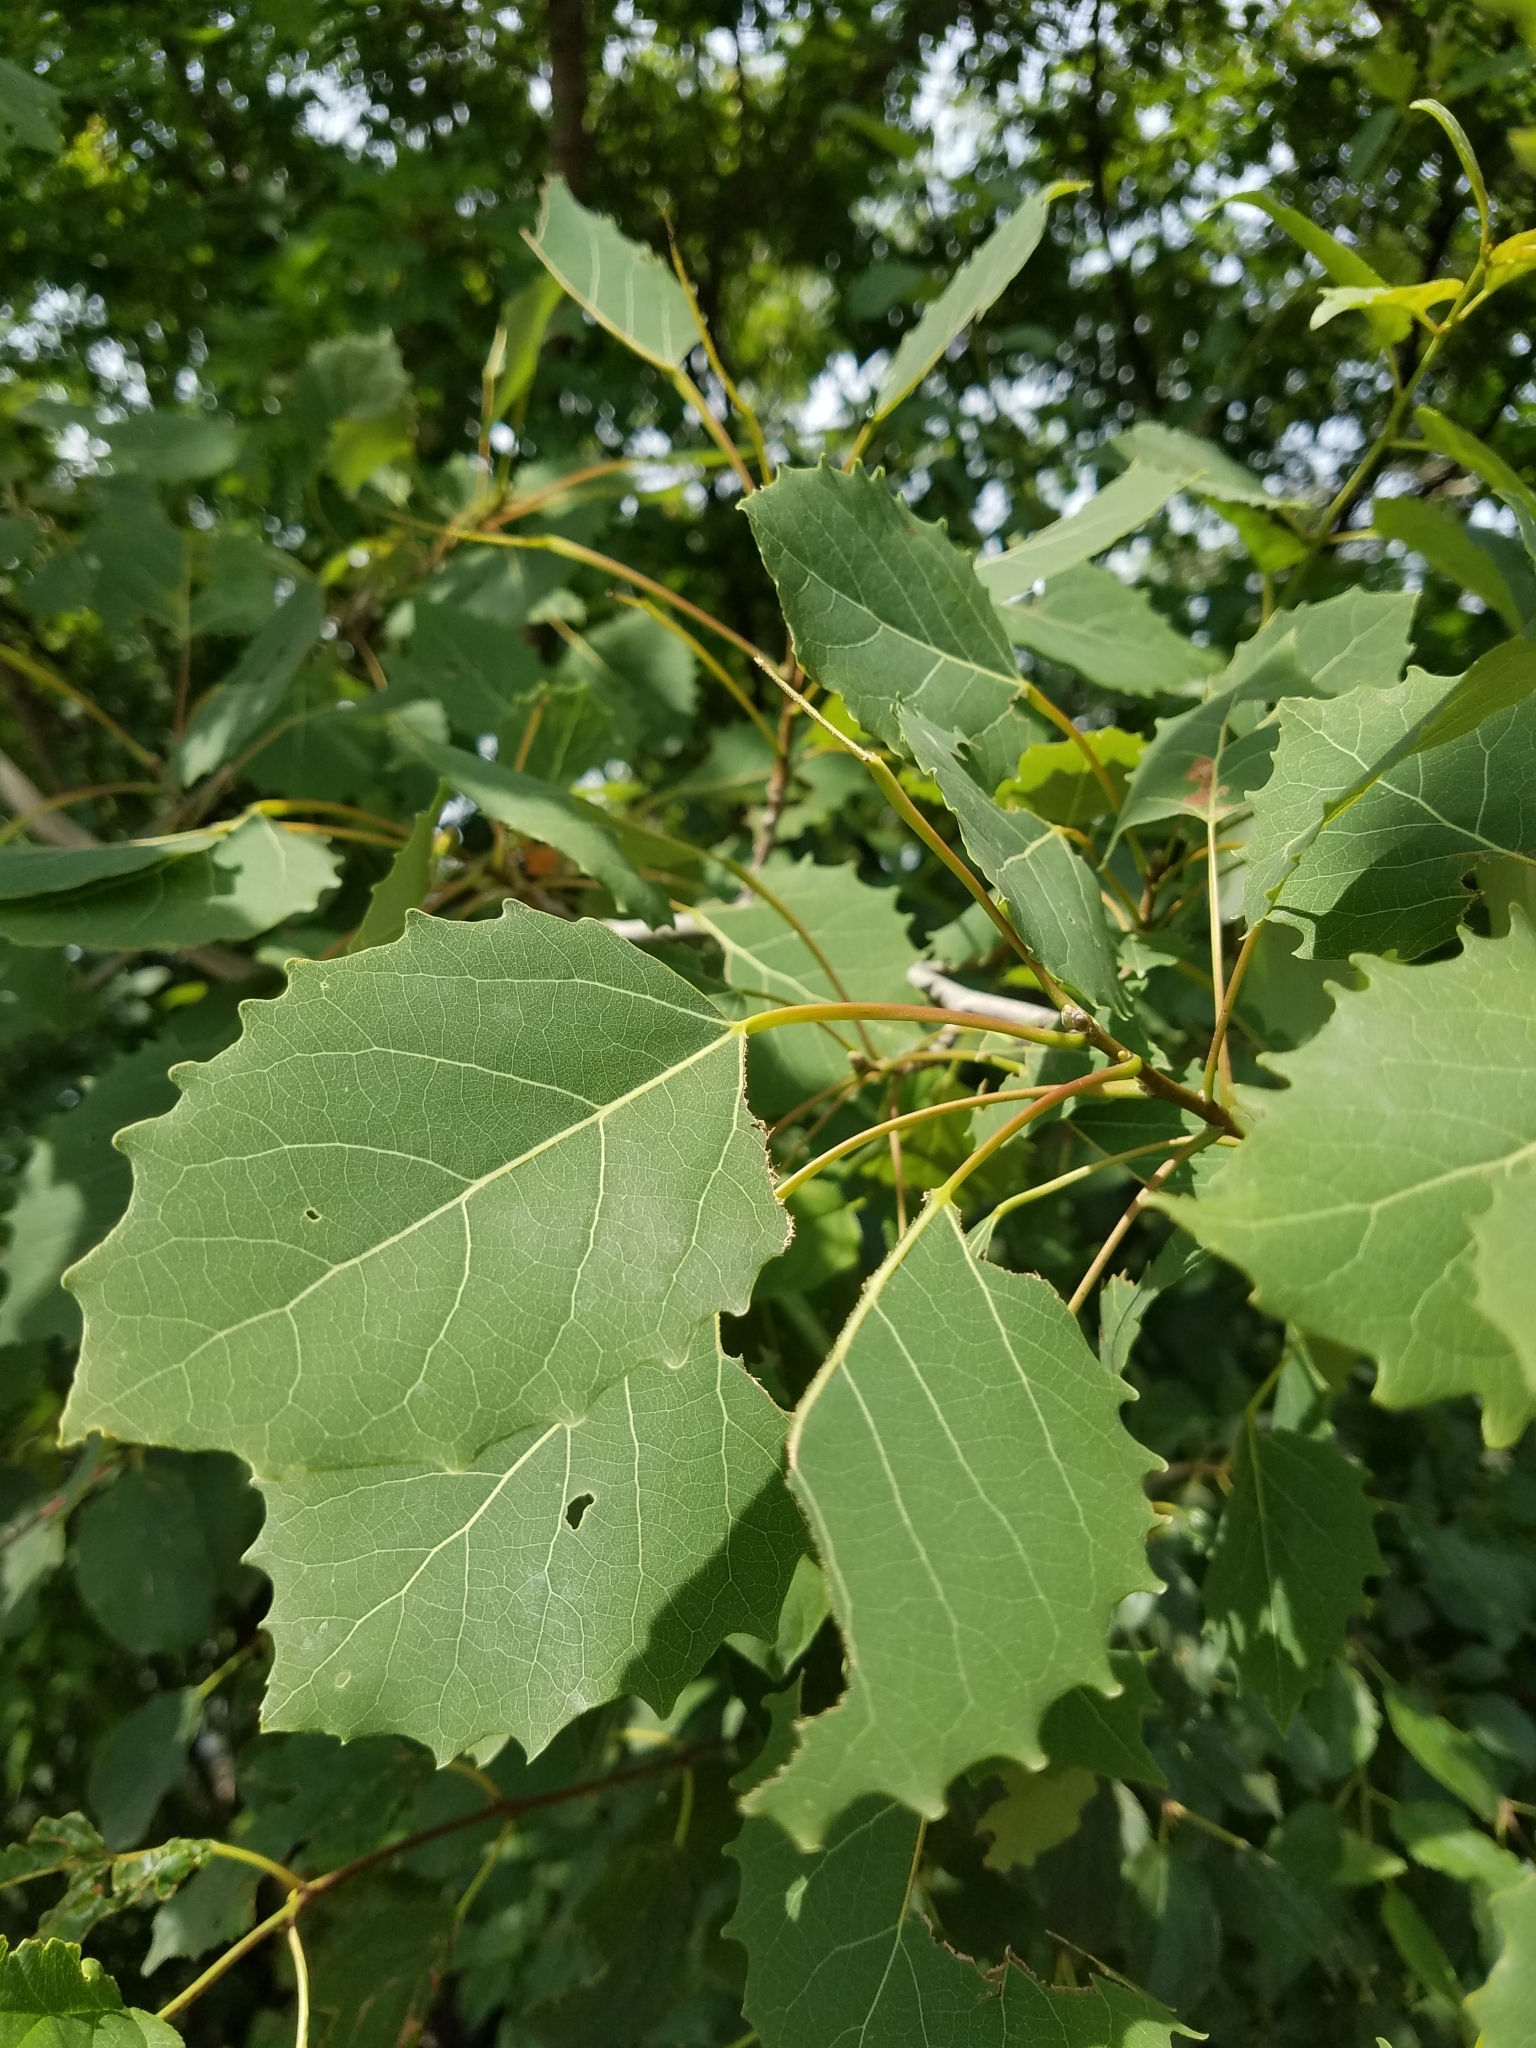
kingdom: Plantae
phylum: Tracheophyta
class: Magnoliopsida
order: Malpighiales
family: Salicaceae
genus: Populus
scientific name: Populus grandidentata
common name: Bigtooth aspen
